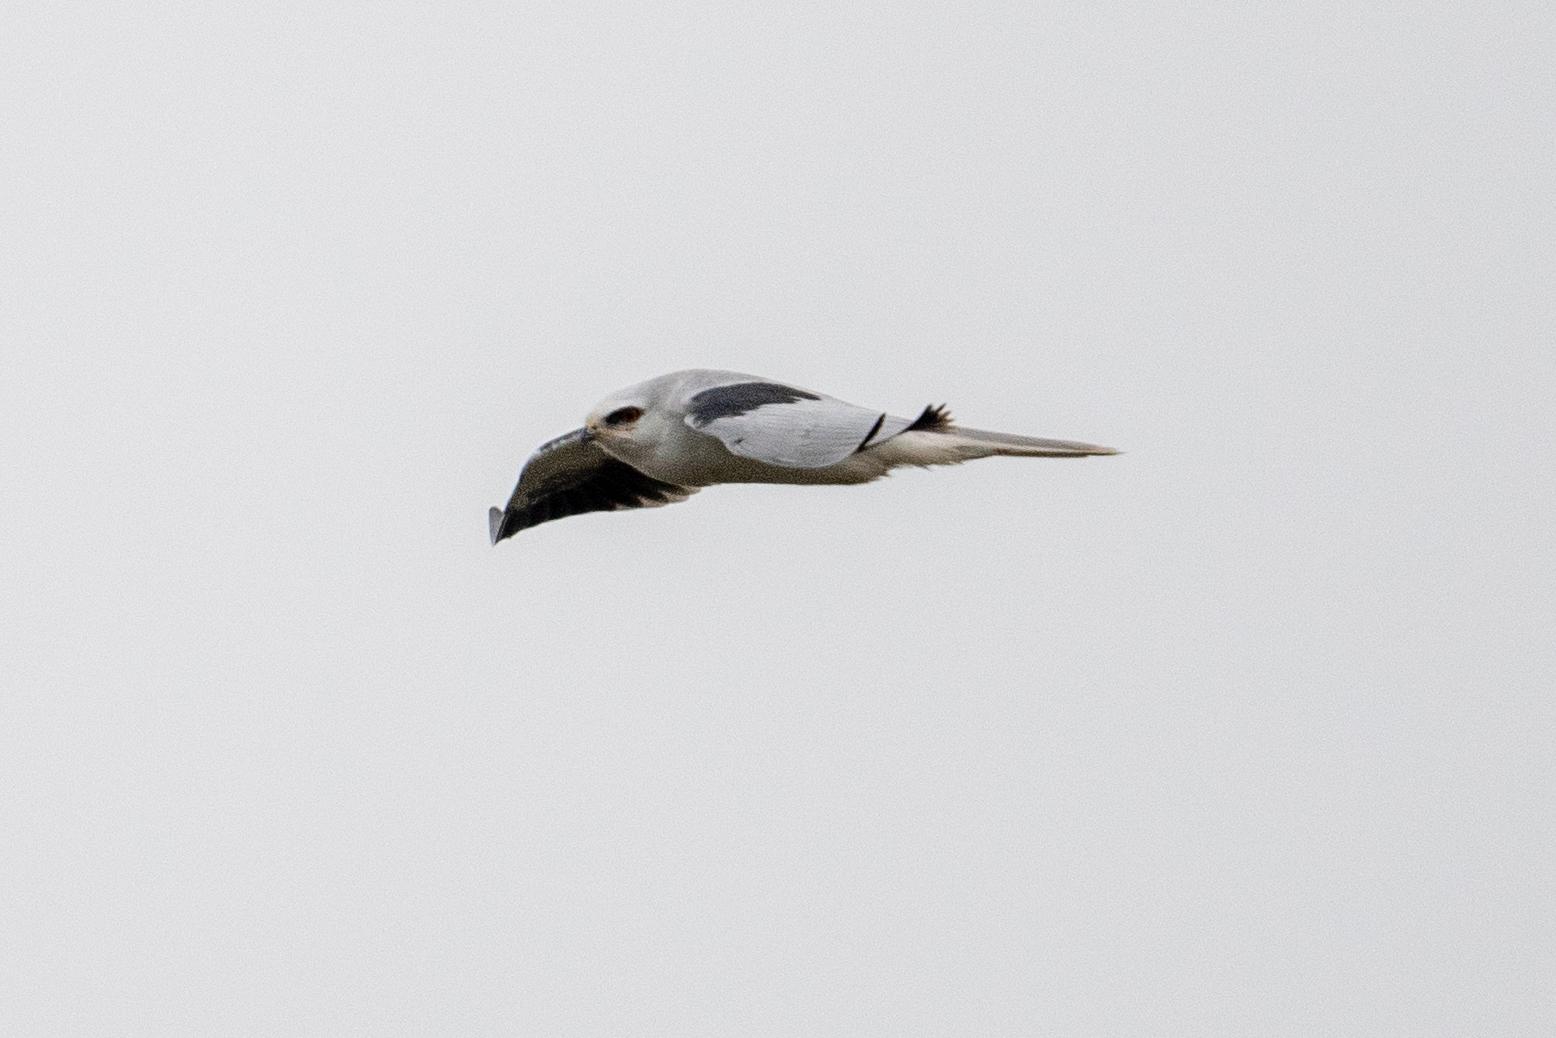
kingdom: Animalia
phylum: Chordata
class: Aves
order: Accipitriformes
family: Accipitridae
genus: Elanus
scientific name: Elanus leucurus
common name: White-tailed kite
